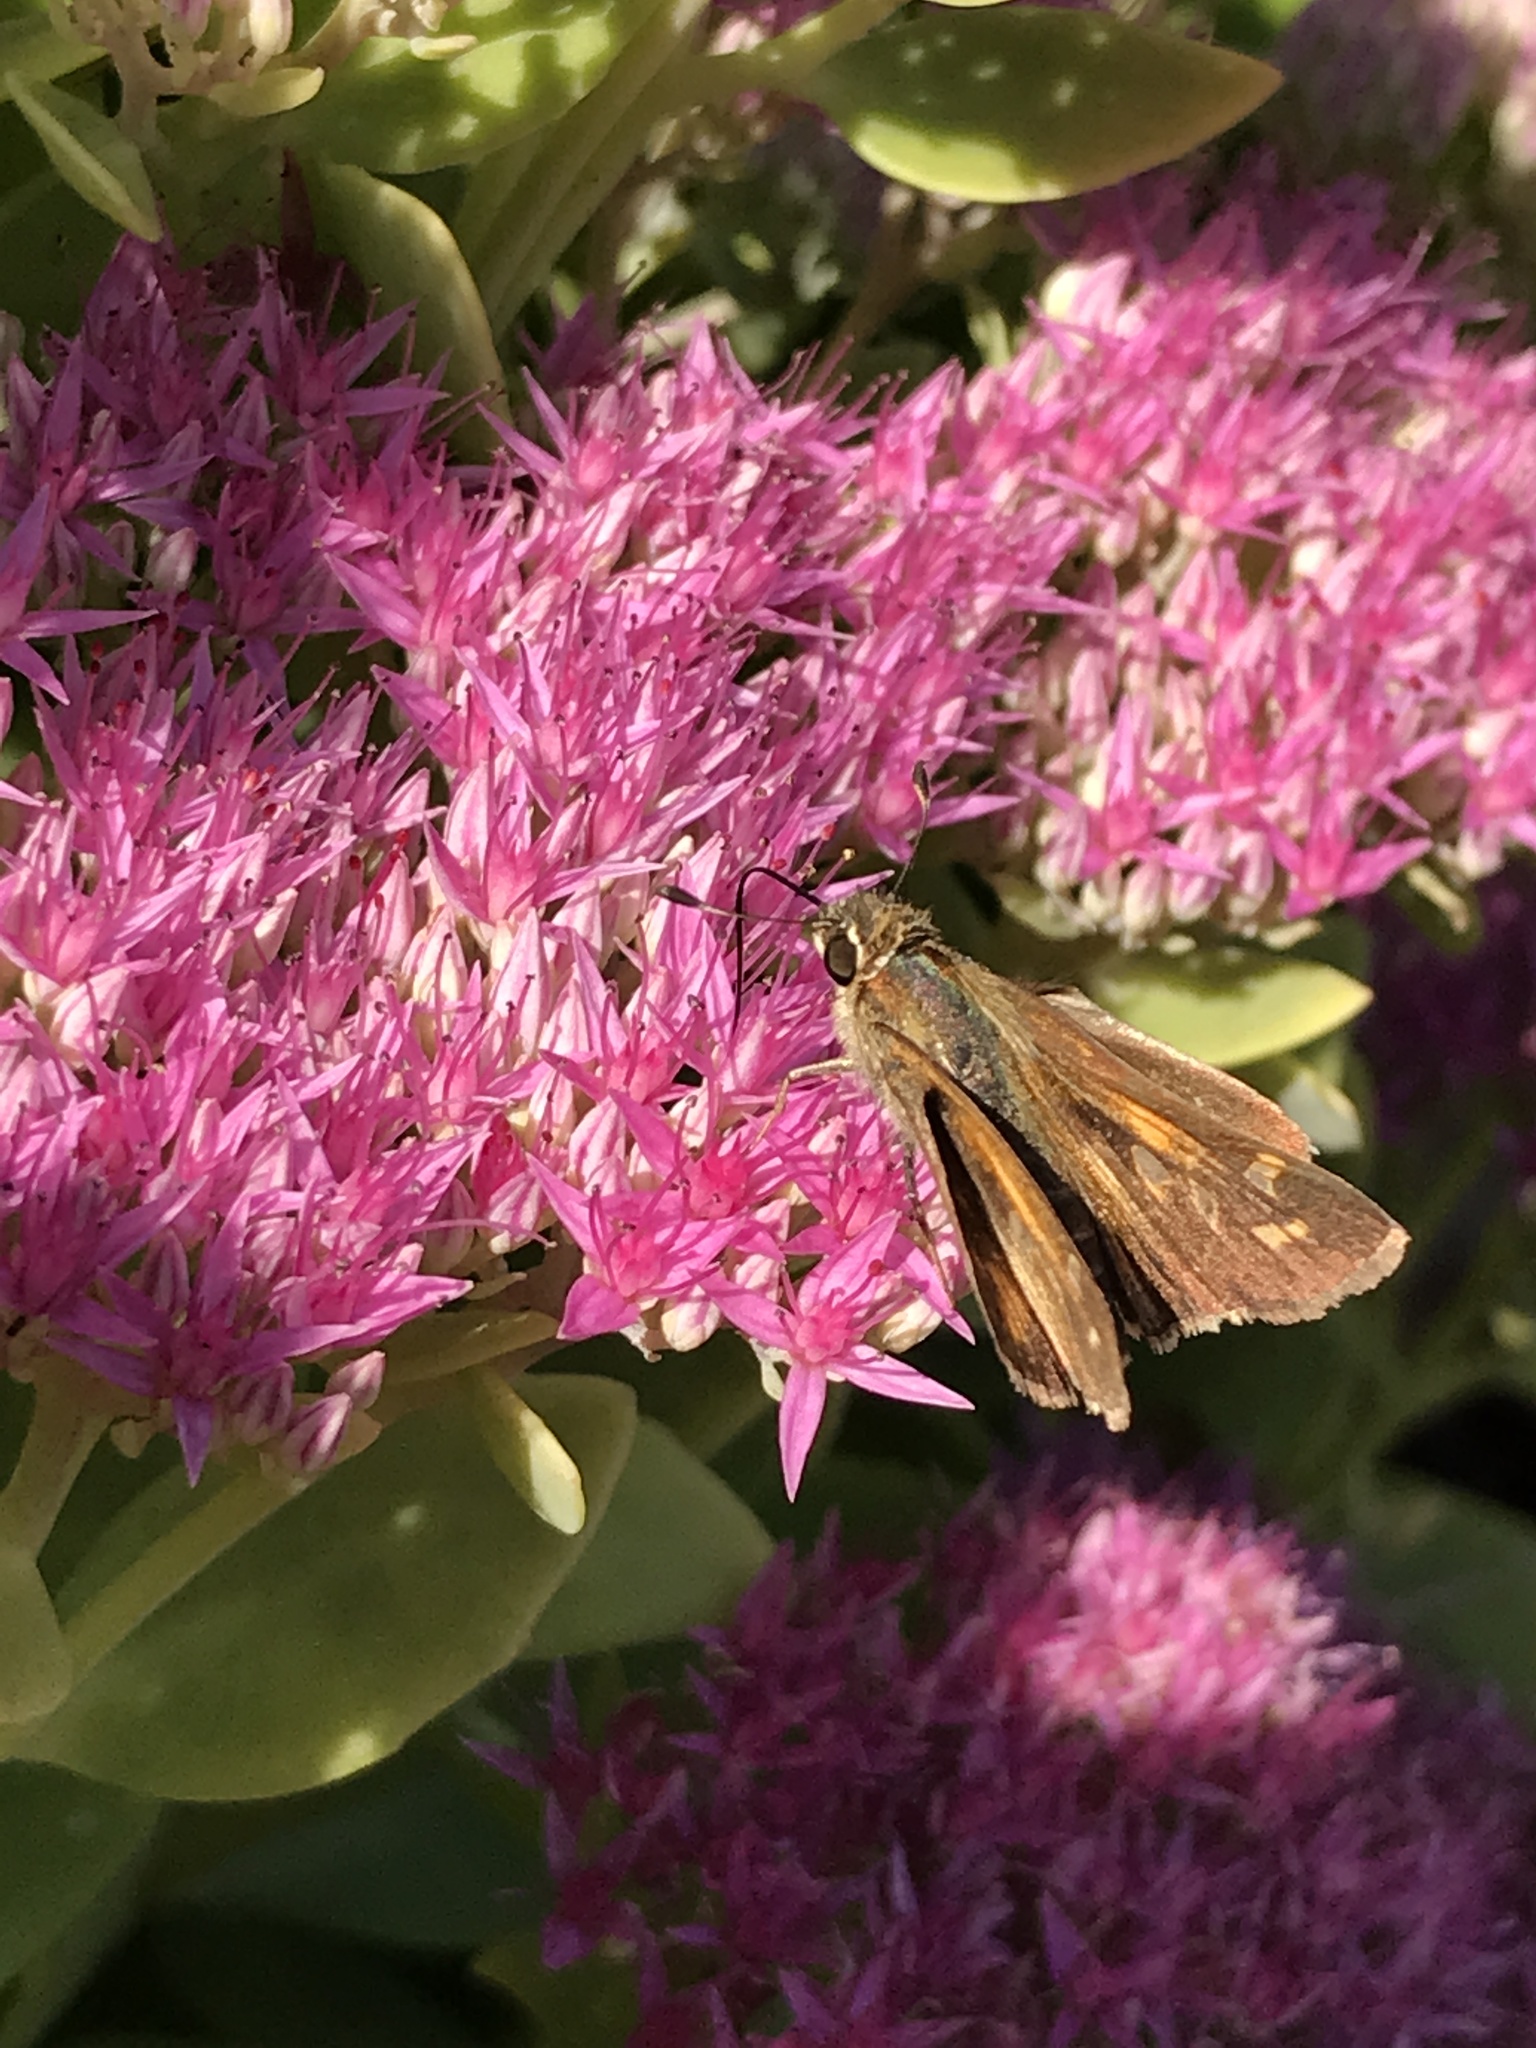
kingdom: Animalia
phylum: Arthropoda
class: Insecta
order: Lepidoptera
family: Hesperiidae
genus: Atalopedes
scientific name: Atalopedes
